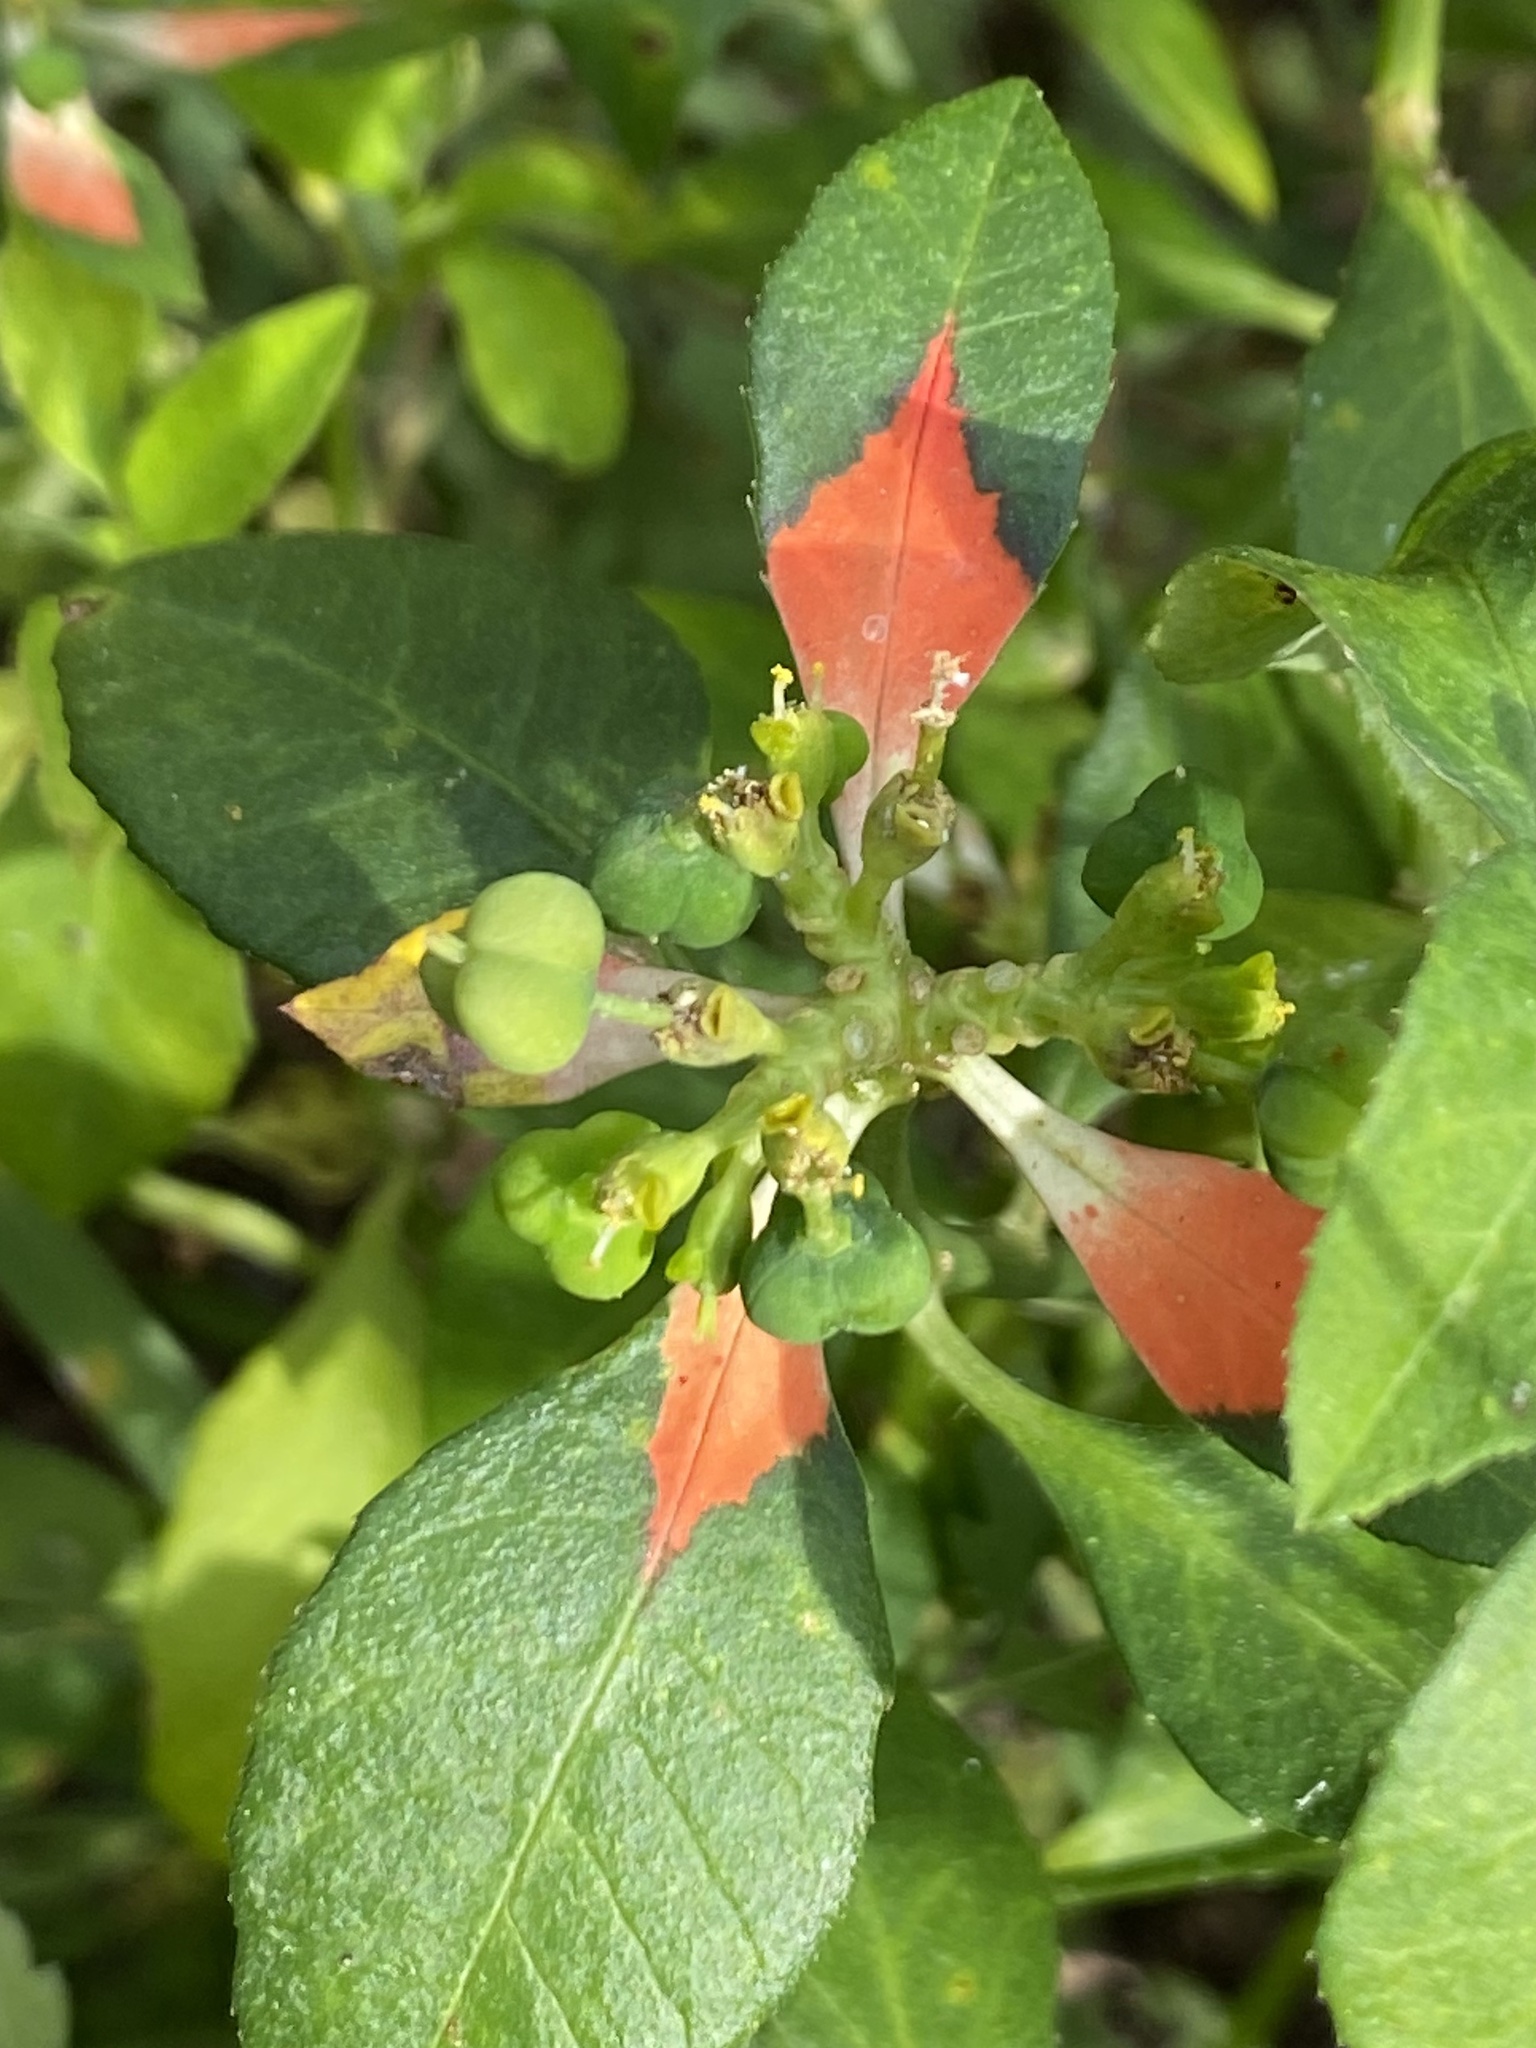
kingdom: Plantae
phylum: Tracheophyta
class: Magnoliopsida
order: Malpighiales
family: Euphorbiaceae
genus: Euphorbia
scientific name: Euphorbia heterophylla
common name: Mexican fireplant
